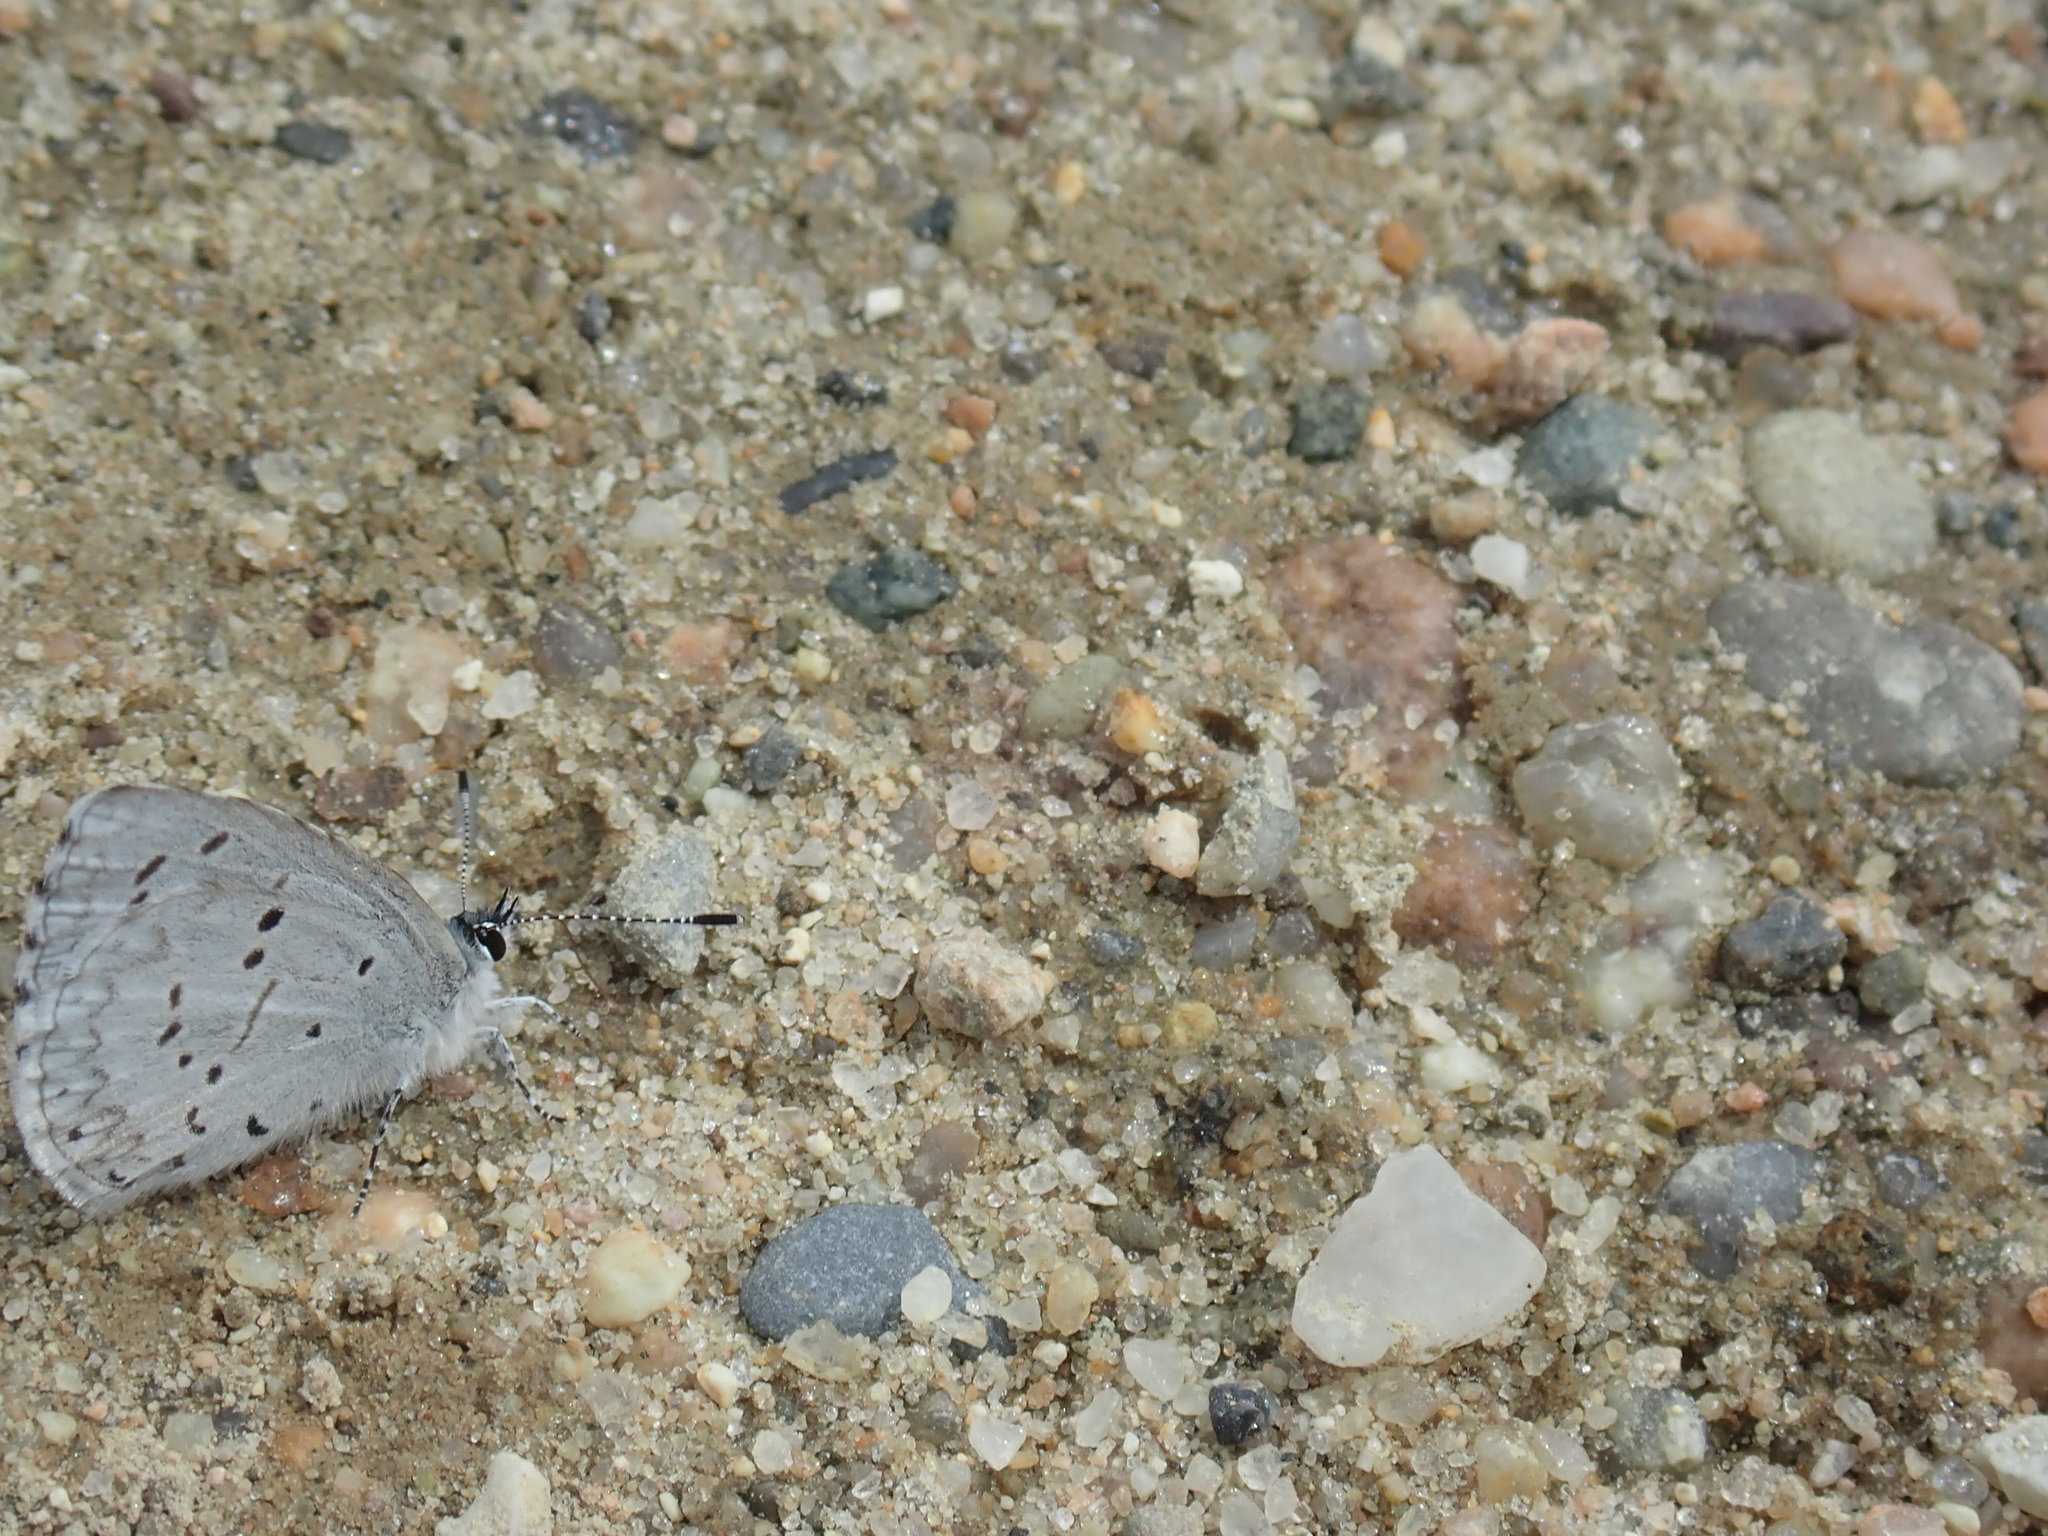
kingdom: Animalia
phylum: Arthropoda
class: Insecta
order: Lepidoptera
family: Lycaenidae
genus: Celastrina
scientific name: Celastrina ladon
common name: Spring azure
